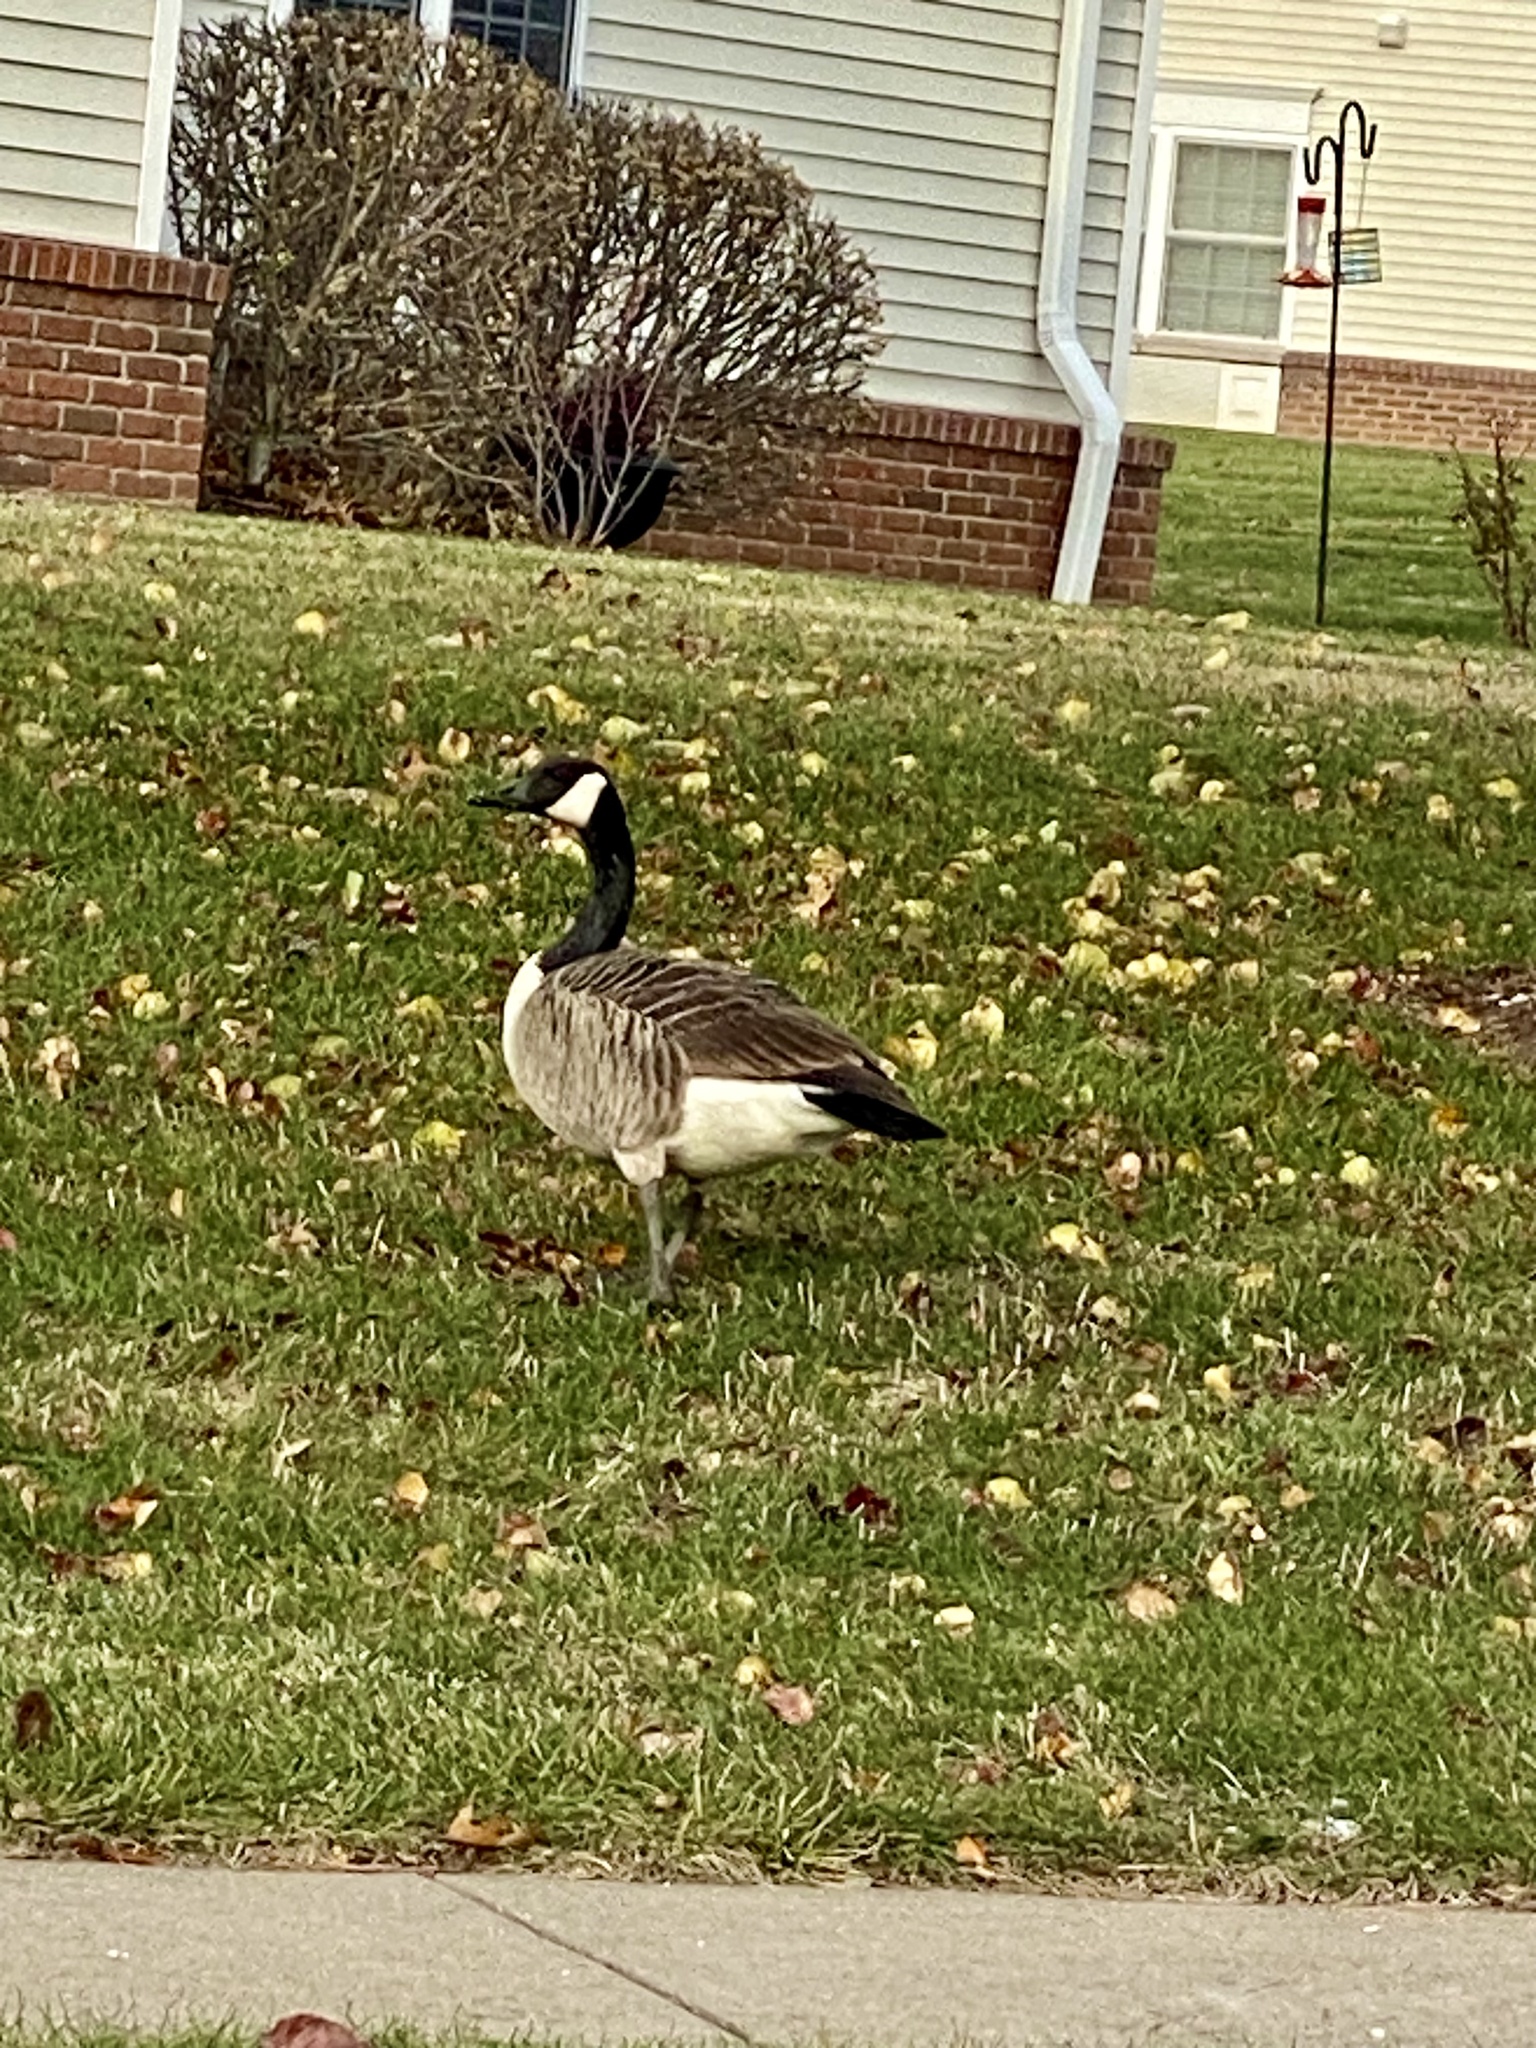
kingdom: Animalia
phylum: Chordata
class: Aves
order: Anseriformes
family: Anatidae
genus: Branta
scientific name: Branta canadensis
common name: Canada goose
